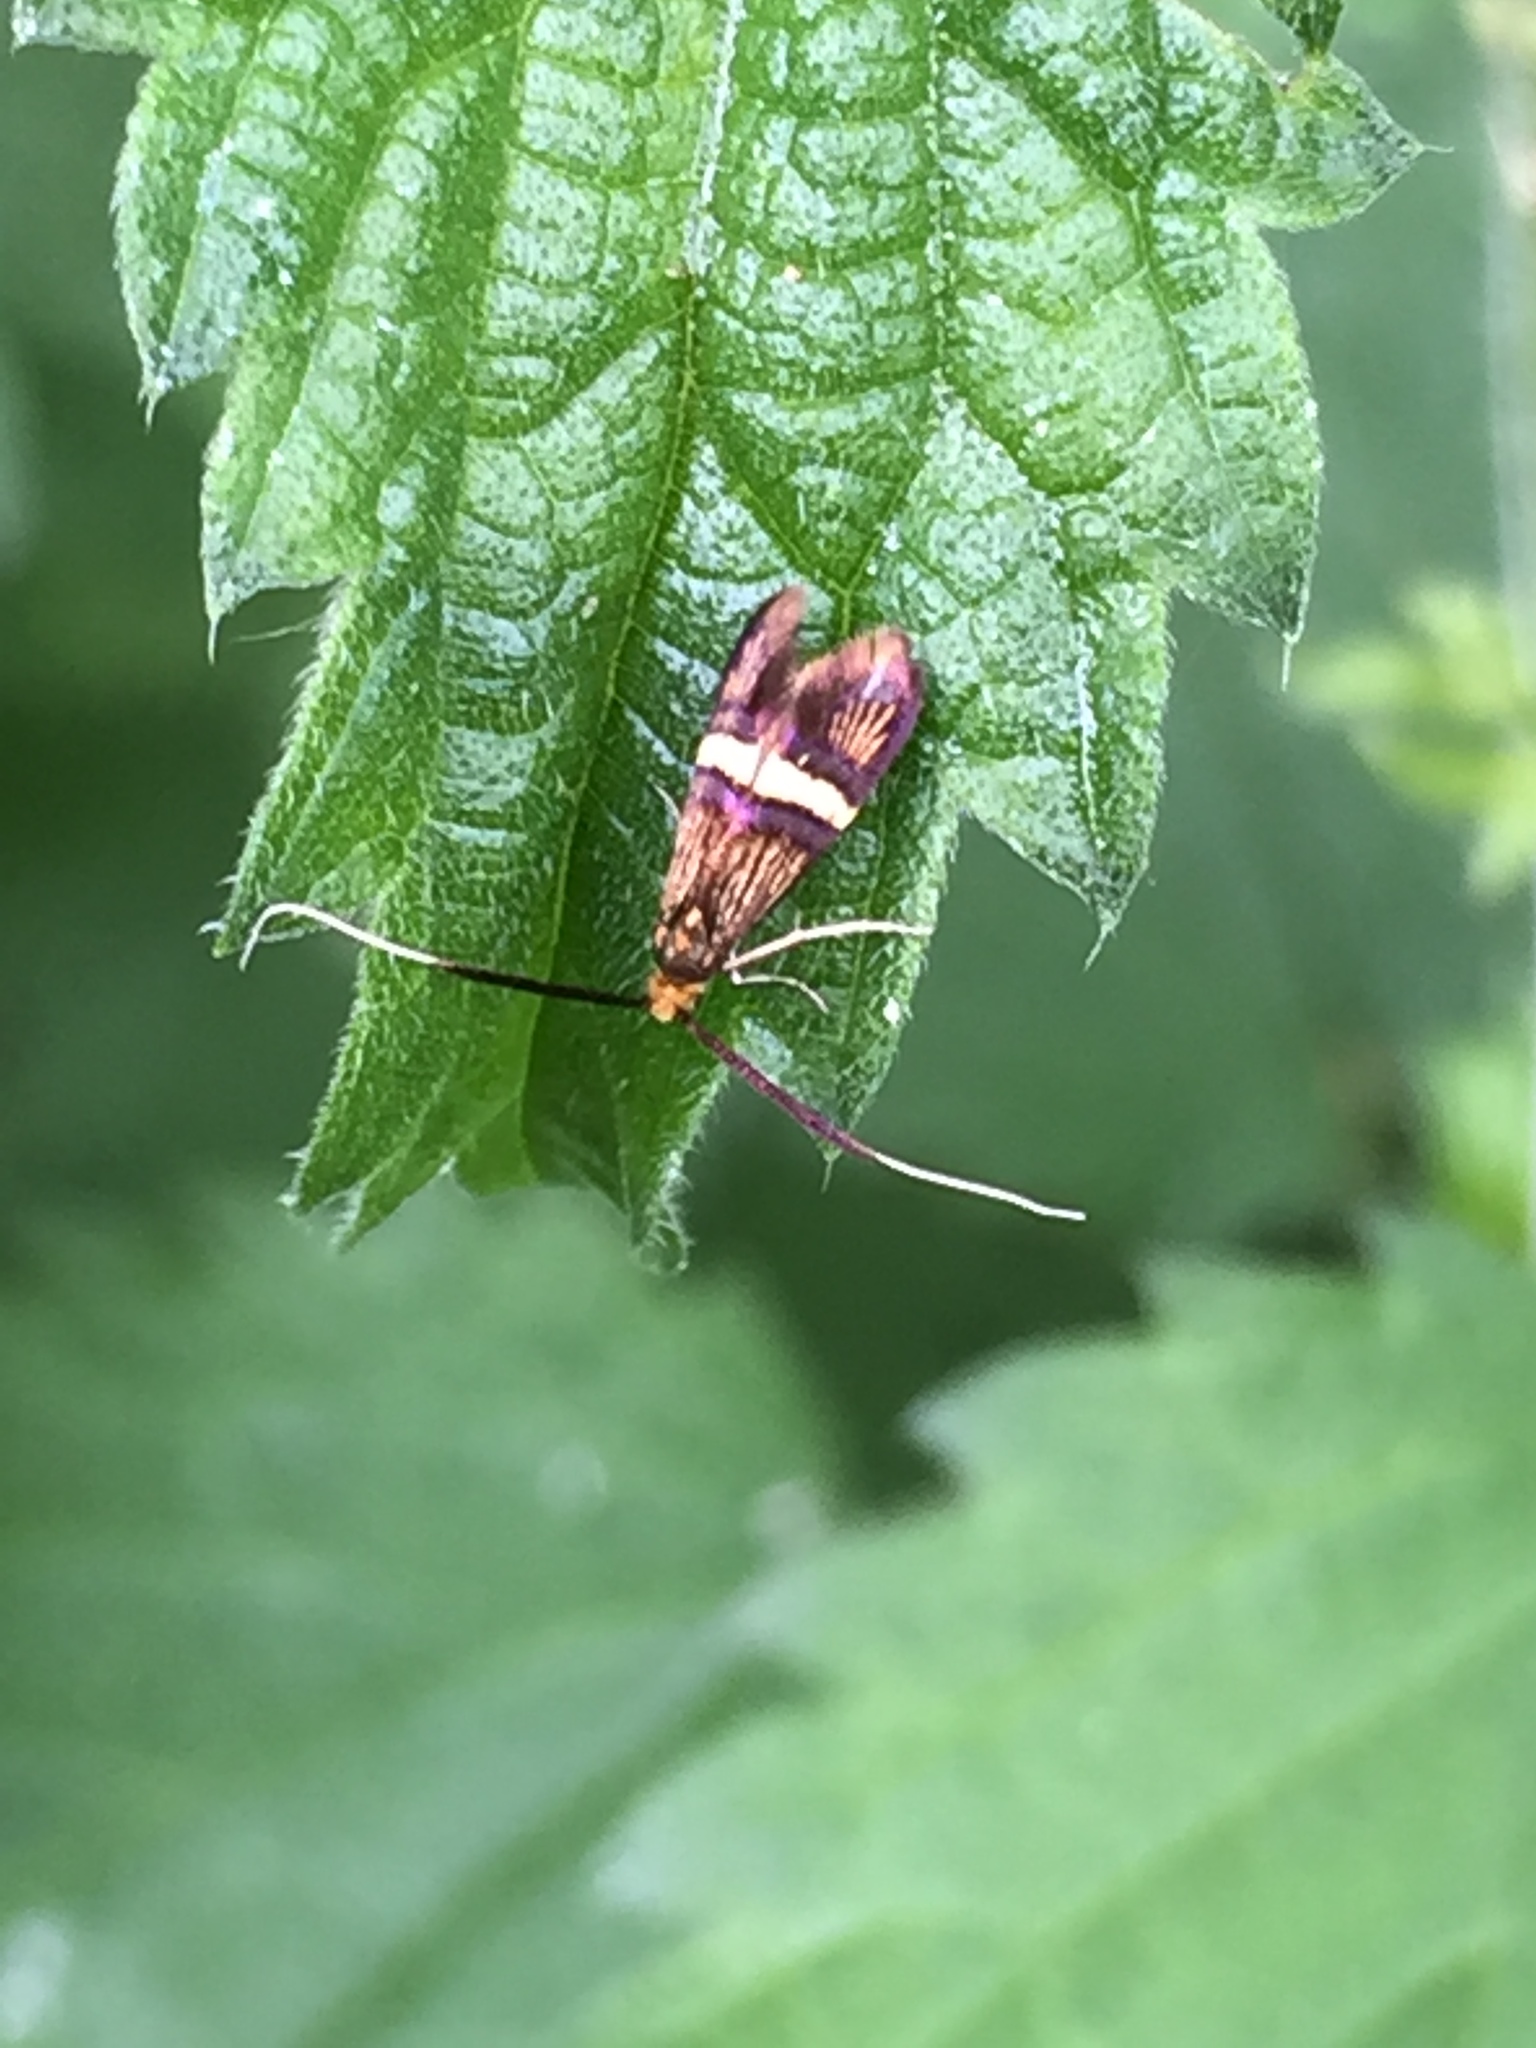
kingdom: Animalia
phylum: Arthropoda
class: Insecta
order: Lepidoptera
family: Adelidae
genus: Adela
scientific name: Adela croesella
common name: Small barred long-horn
